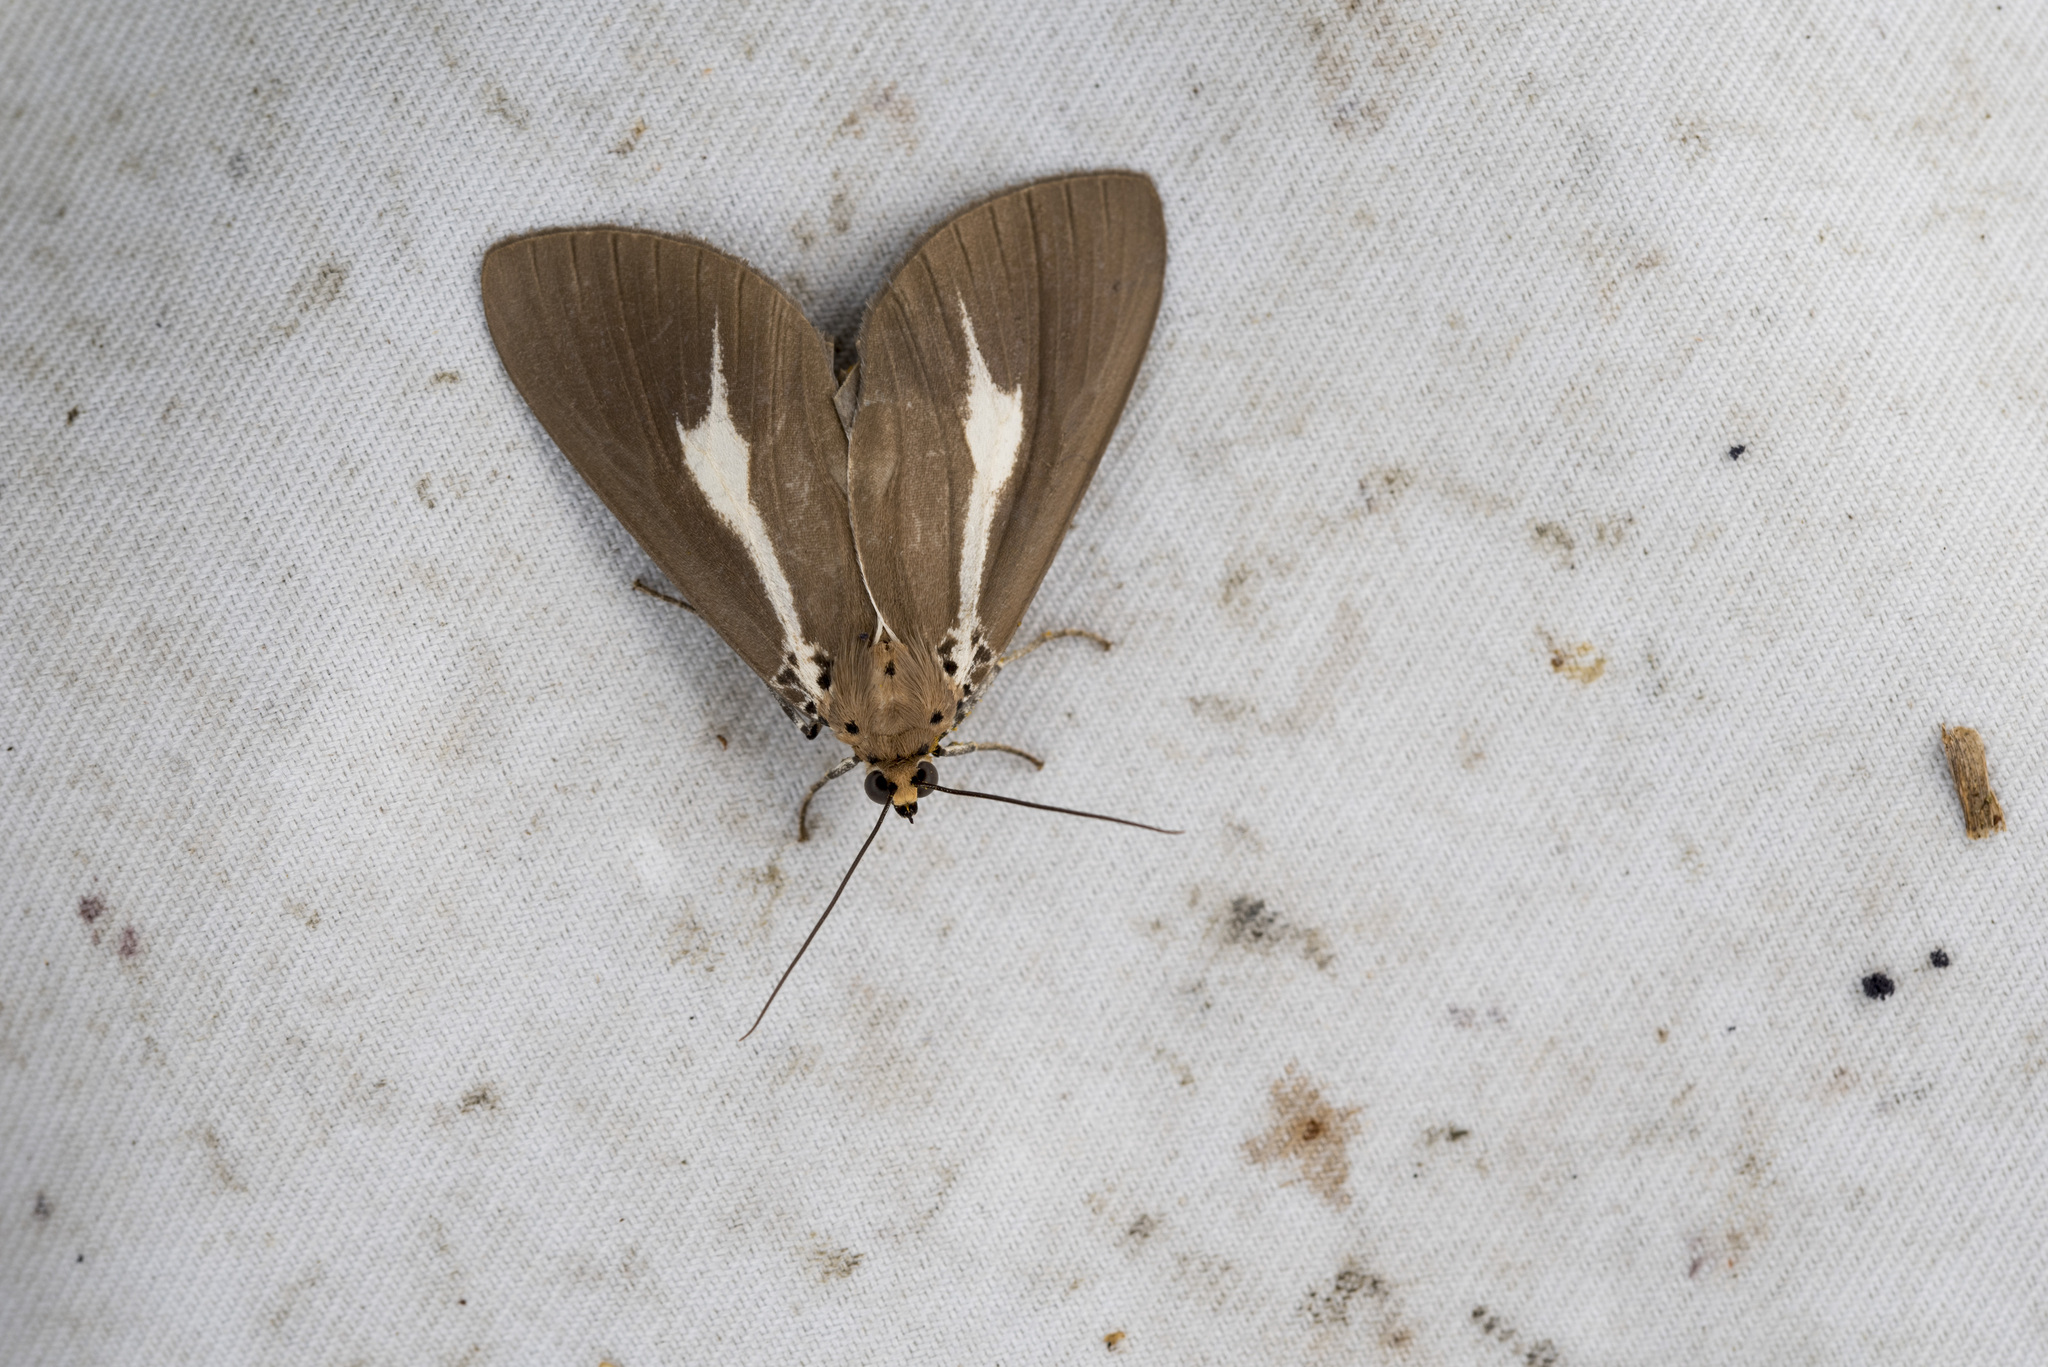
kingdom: Animalia
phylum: Arthropoda
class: Insecta
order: Lepidoptera
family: Erebidae
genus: Asota
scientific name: Asota heliconia
